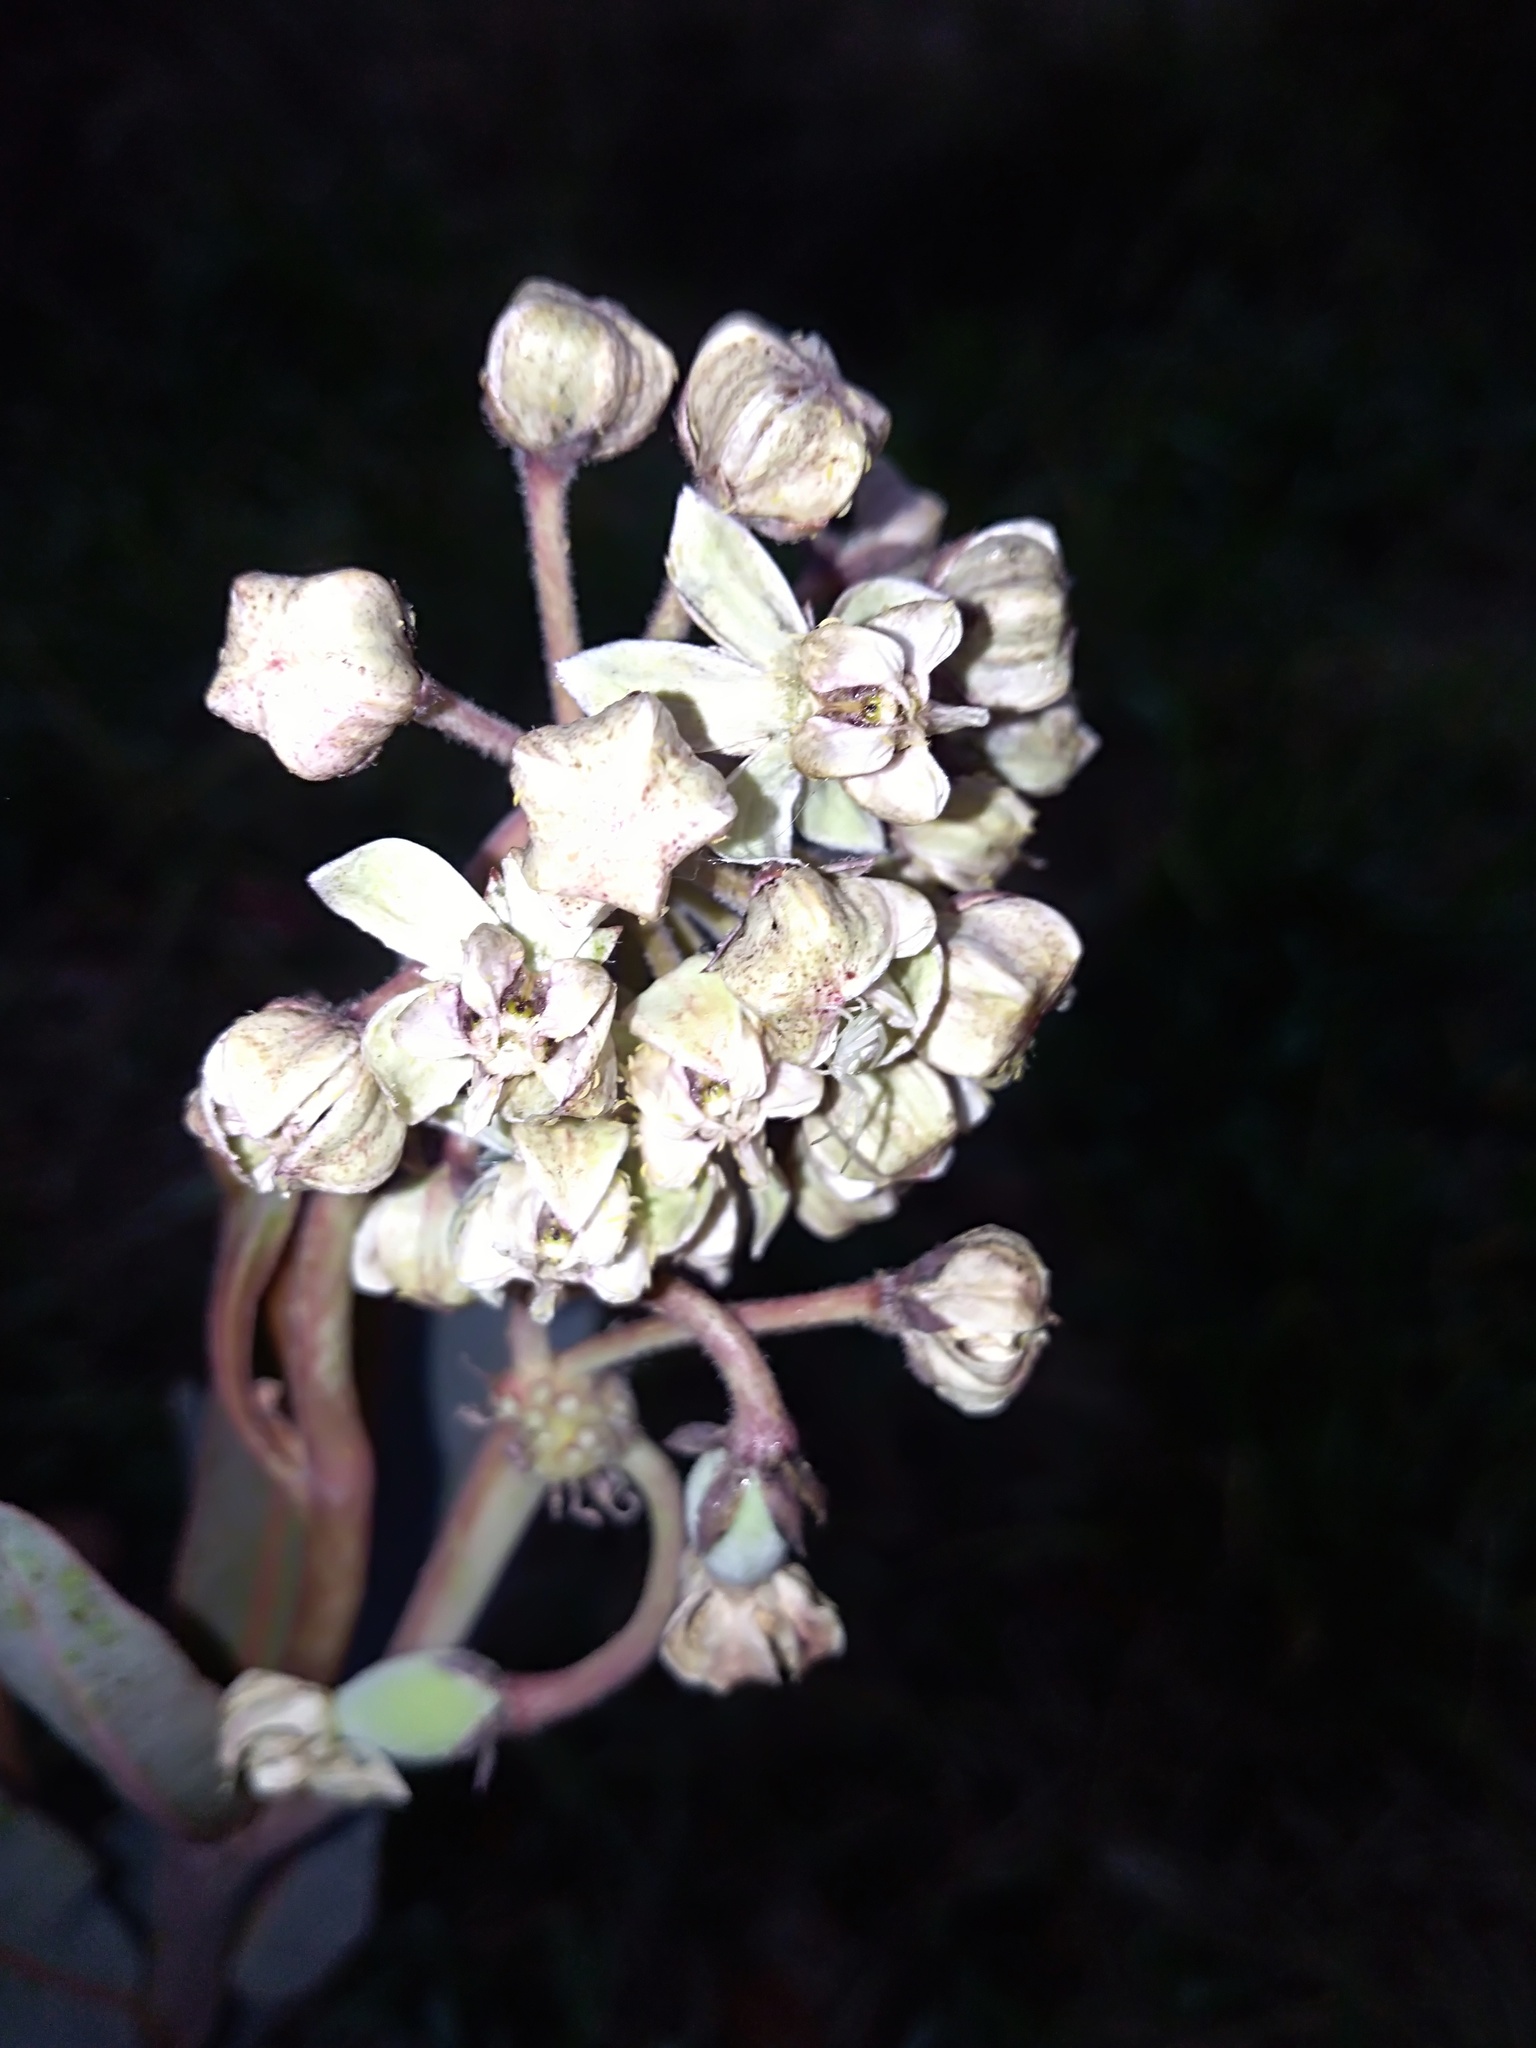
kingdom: Animalia
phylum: Arthropoda
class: Arachnida
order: Araneae
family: Thomisidae
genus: Misumena
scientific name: Misumena vatia
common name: Goldenrod crab spider
